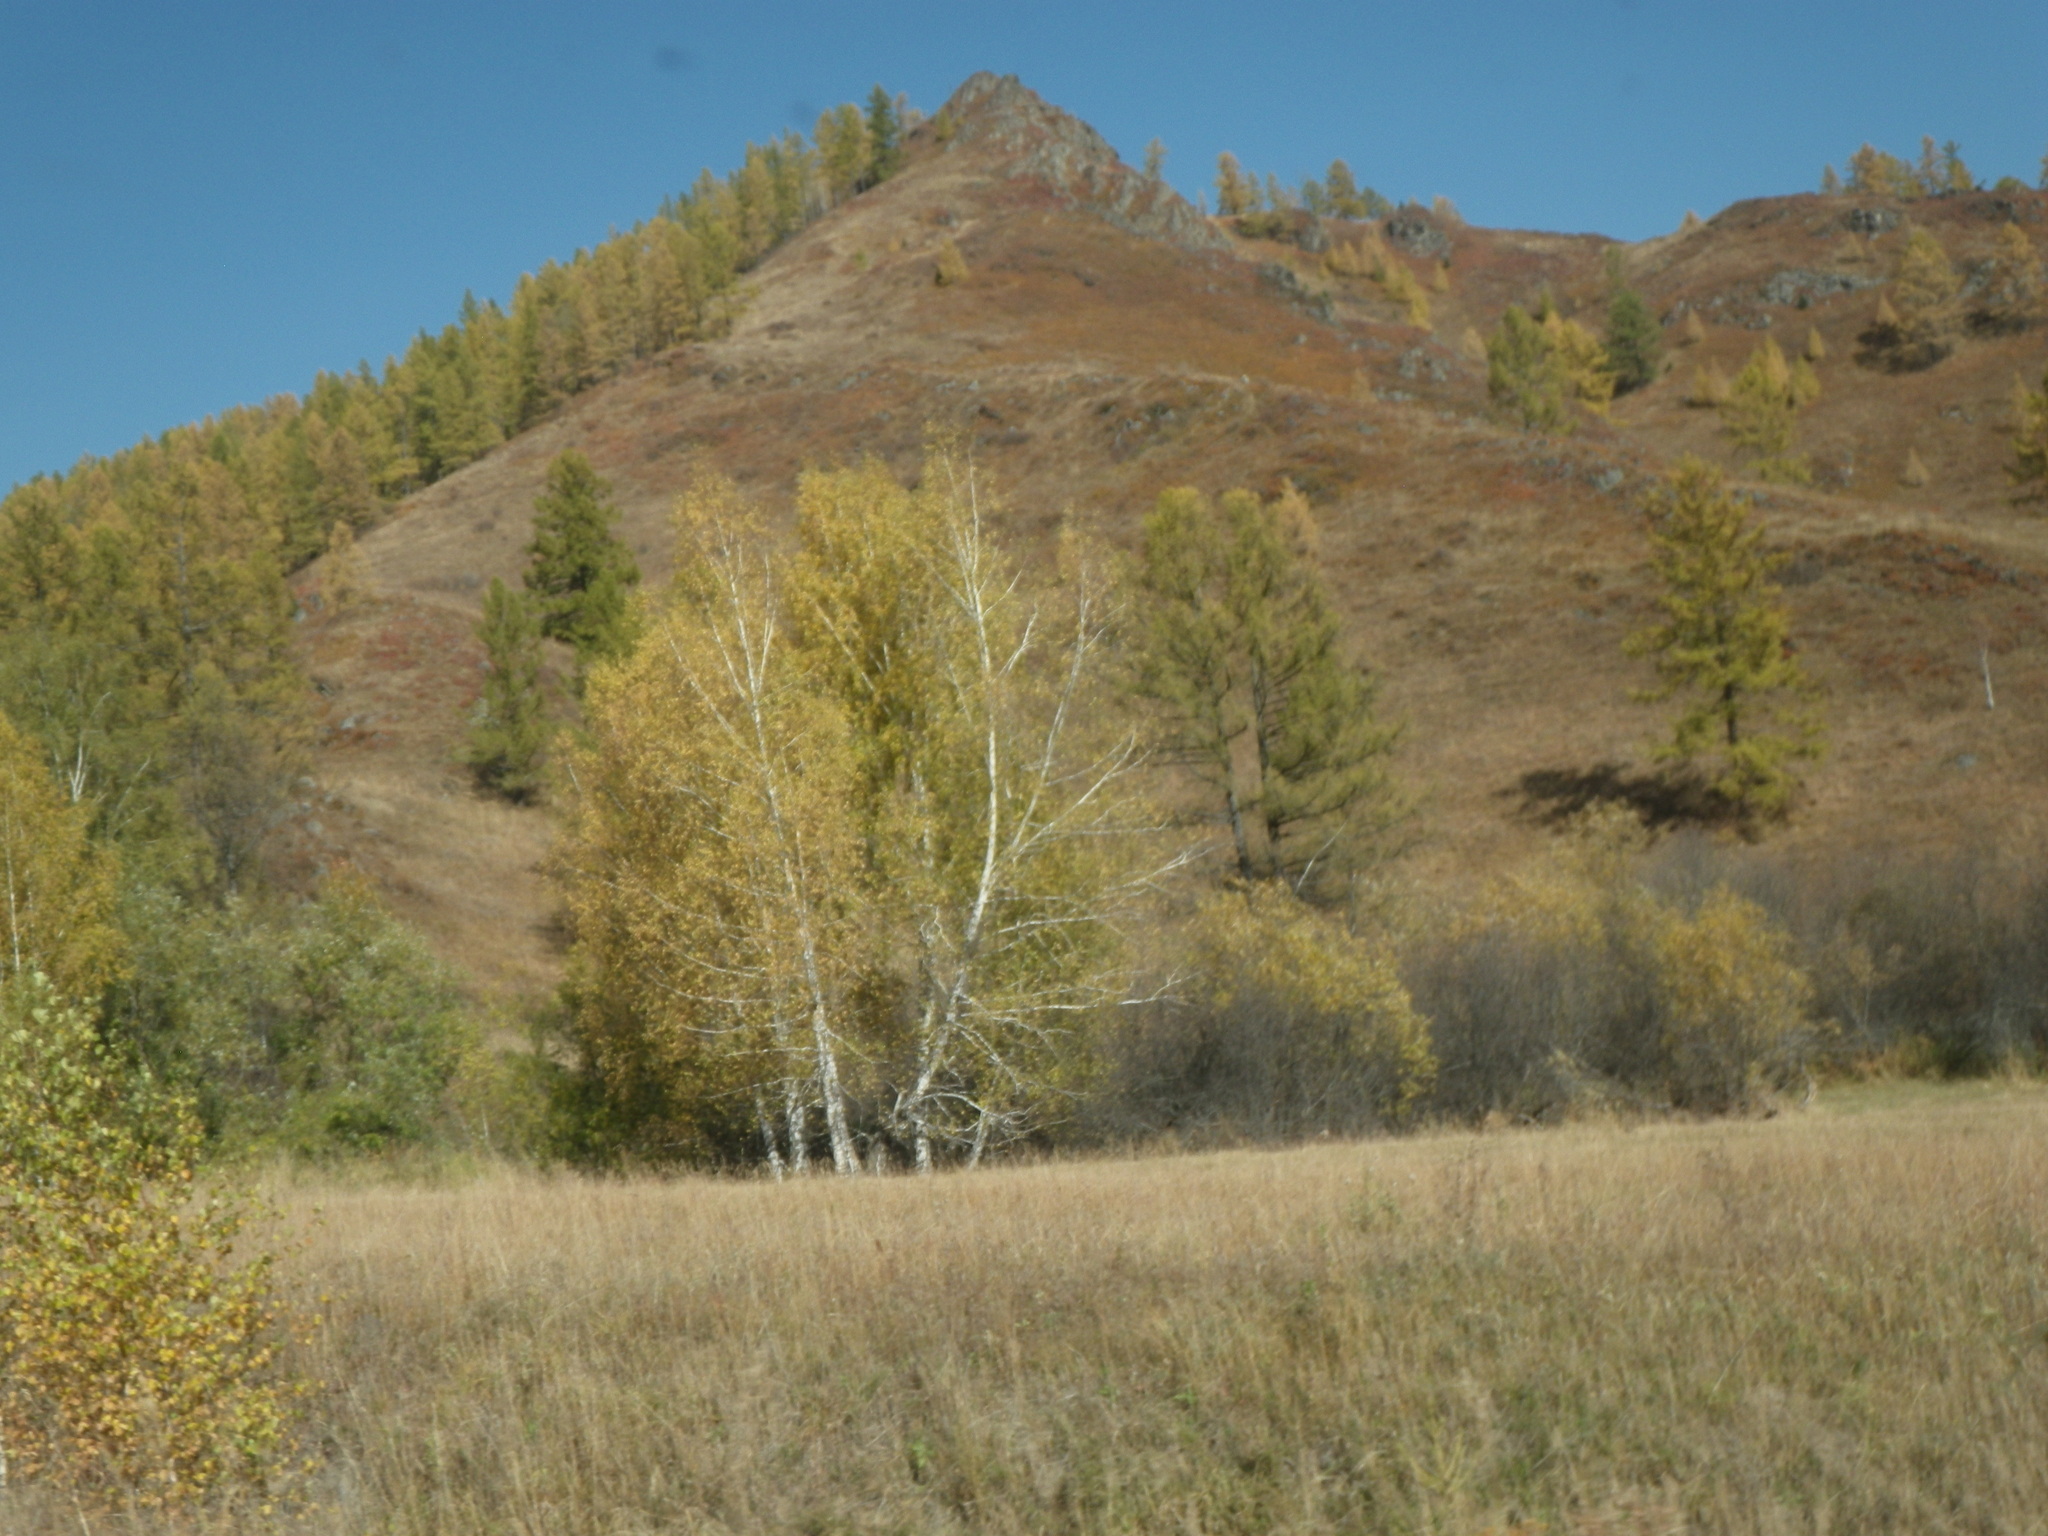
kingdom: Plantae
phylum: Tracheophyta
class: Magnoliopsida
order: Fagales
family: Betulaceae
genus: Betula
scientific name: Betula pendula
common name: Silver birch
